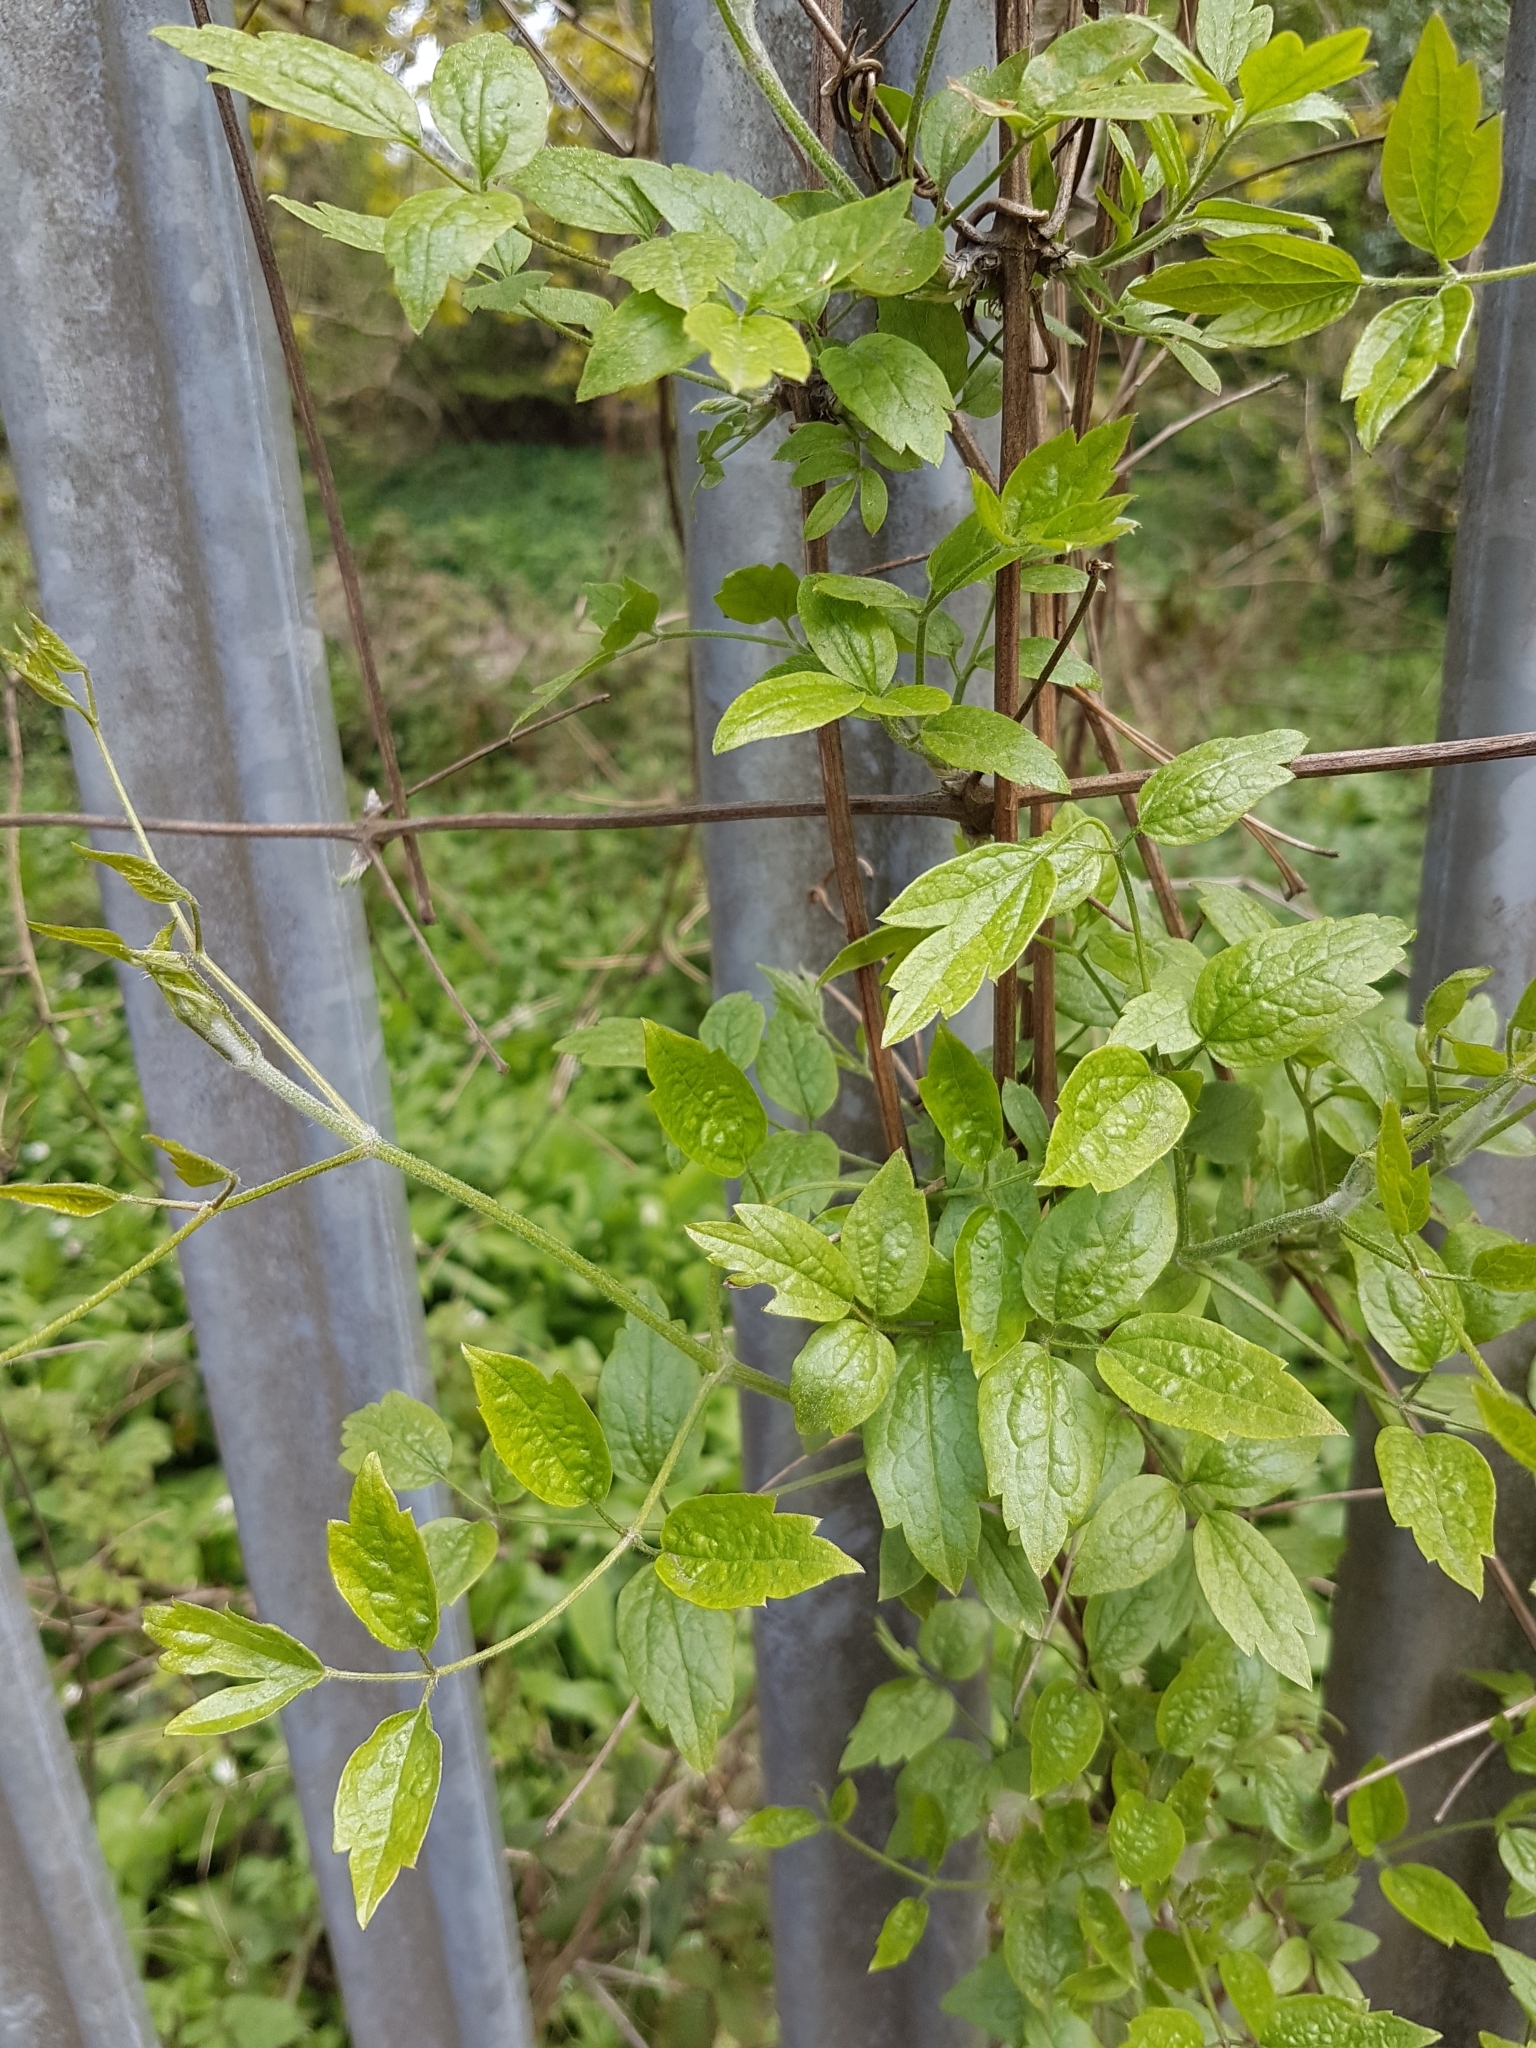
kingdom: Plantae
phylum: Tracheophyta
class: Magnoliopsida
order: Ranunculales
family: Ranunculaceae
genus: Clematis
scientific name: Clematis vitalba
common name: Evergreen clematis
